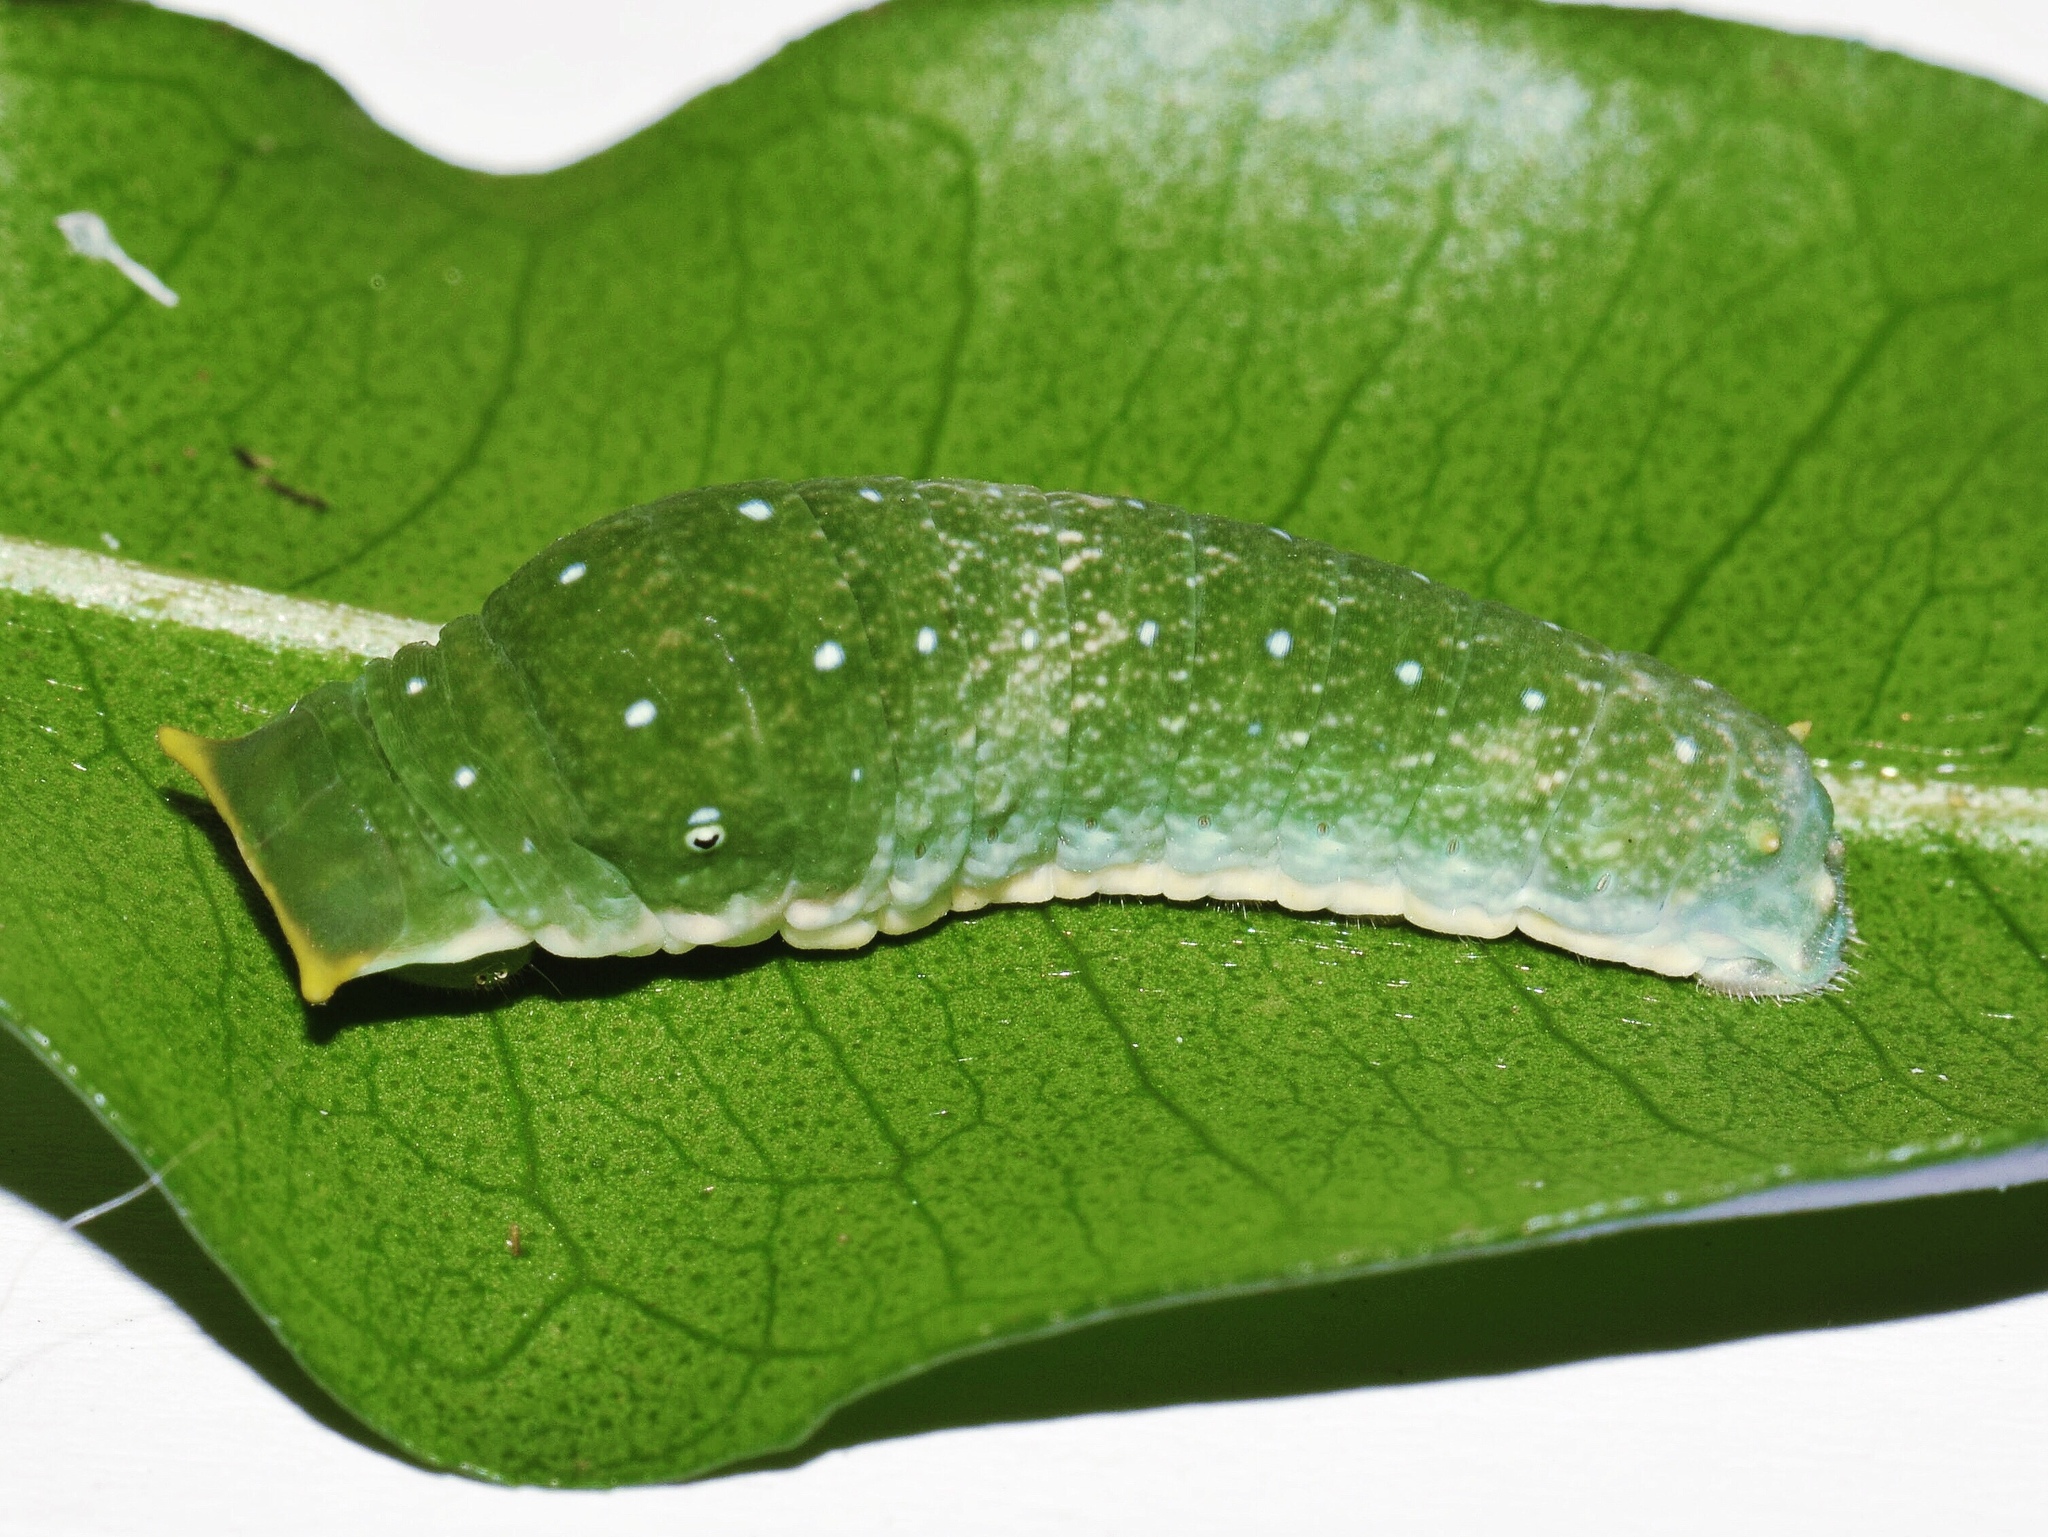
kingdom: Animalia
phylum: Arthropoda
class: Insecta
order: Lepidoptera
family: Papilionidae
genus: Papilio
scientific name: Papilio dardanus
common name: Flying handkerchief
